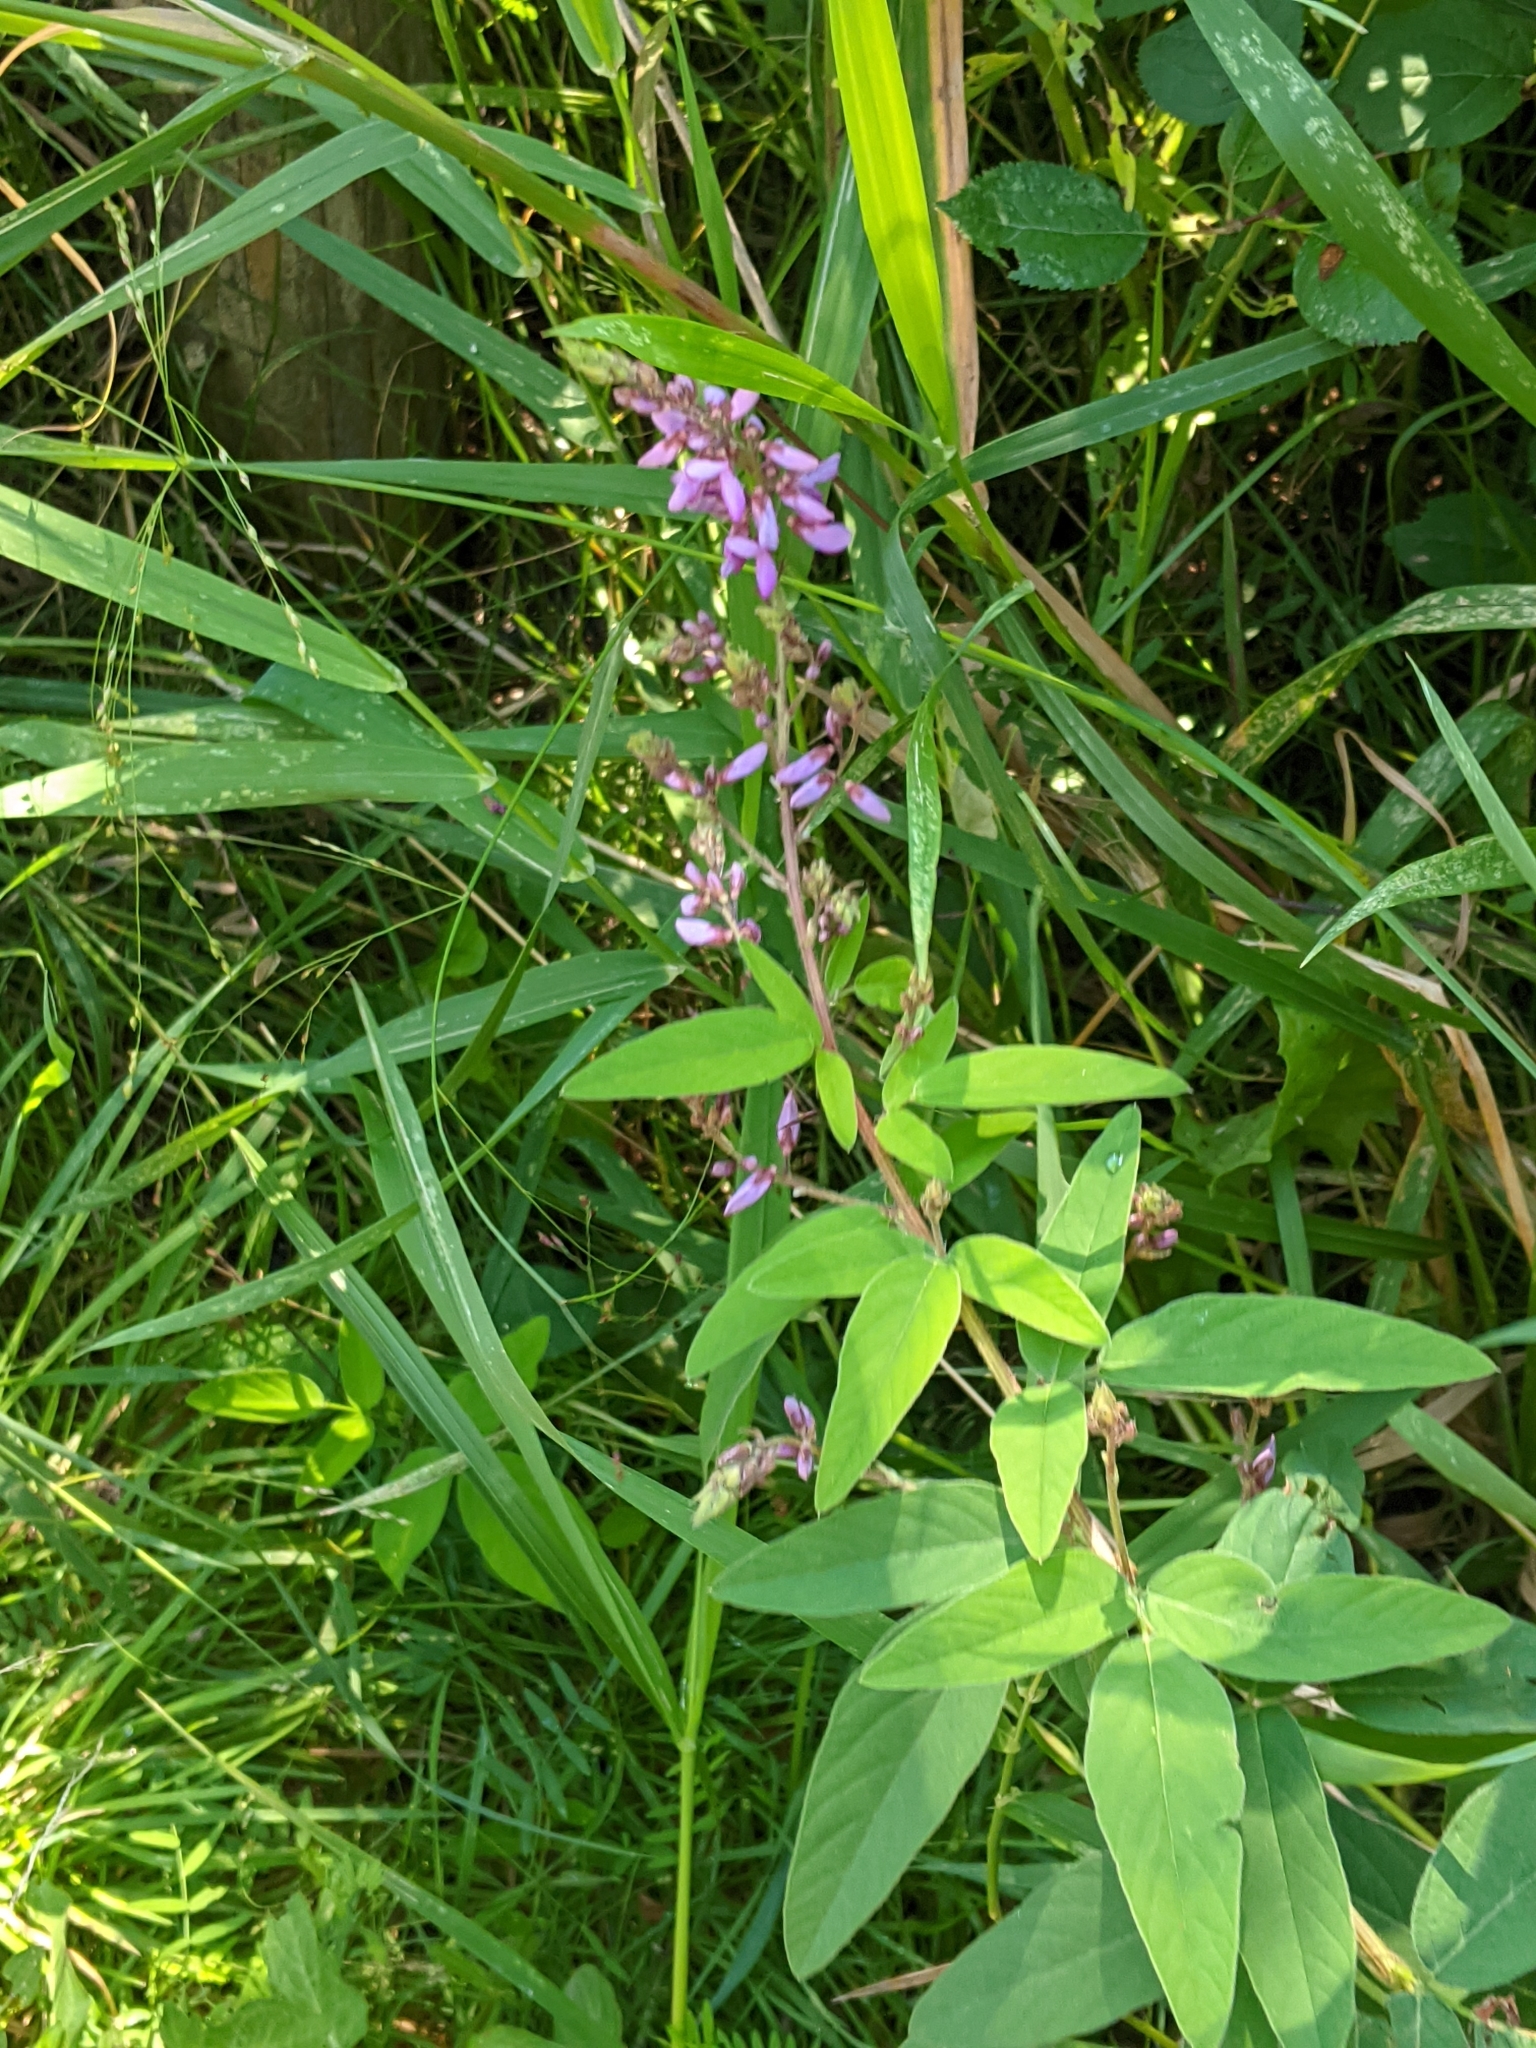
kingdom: Plantae
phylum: Tracheophyta
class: Magnoliopsida
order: Fabales
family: Fabaceae
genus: Desmodium
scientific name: Desmodium canadense
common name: Canada tick-trefoil
